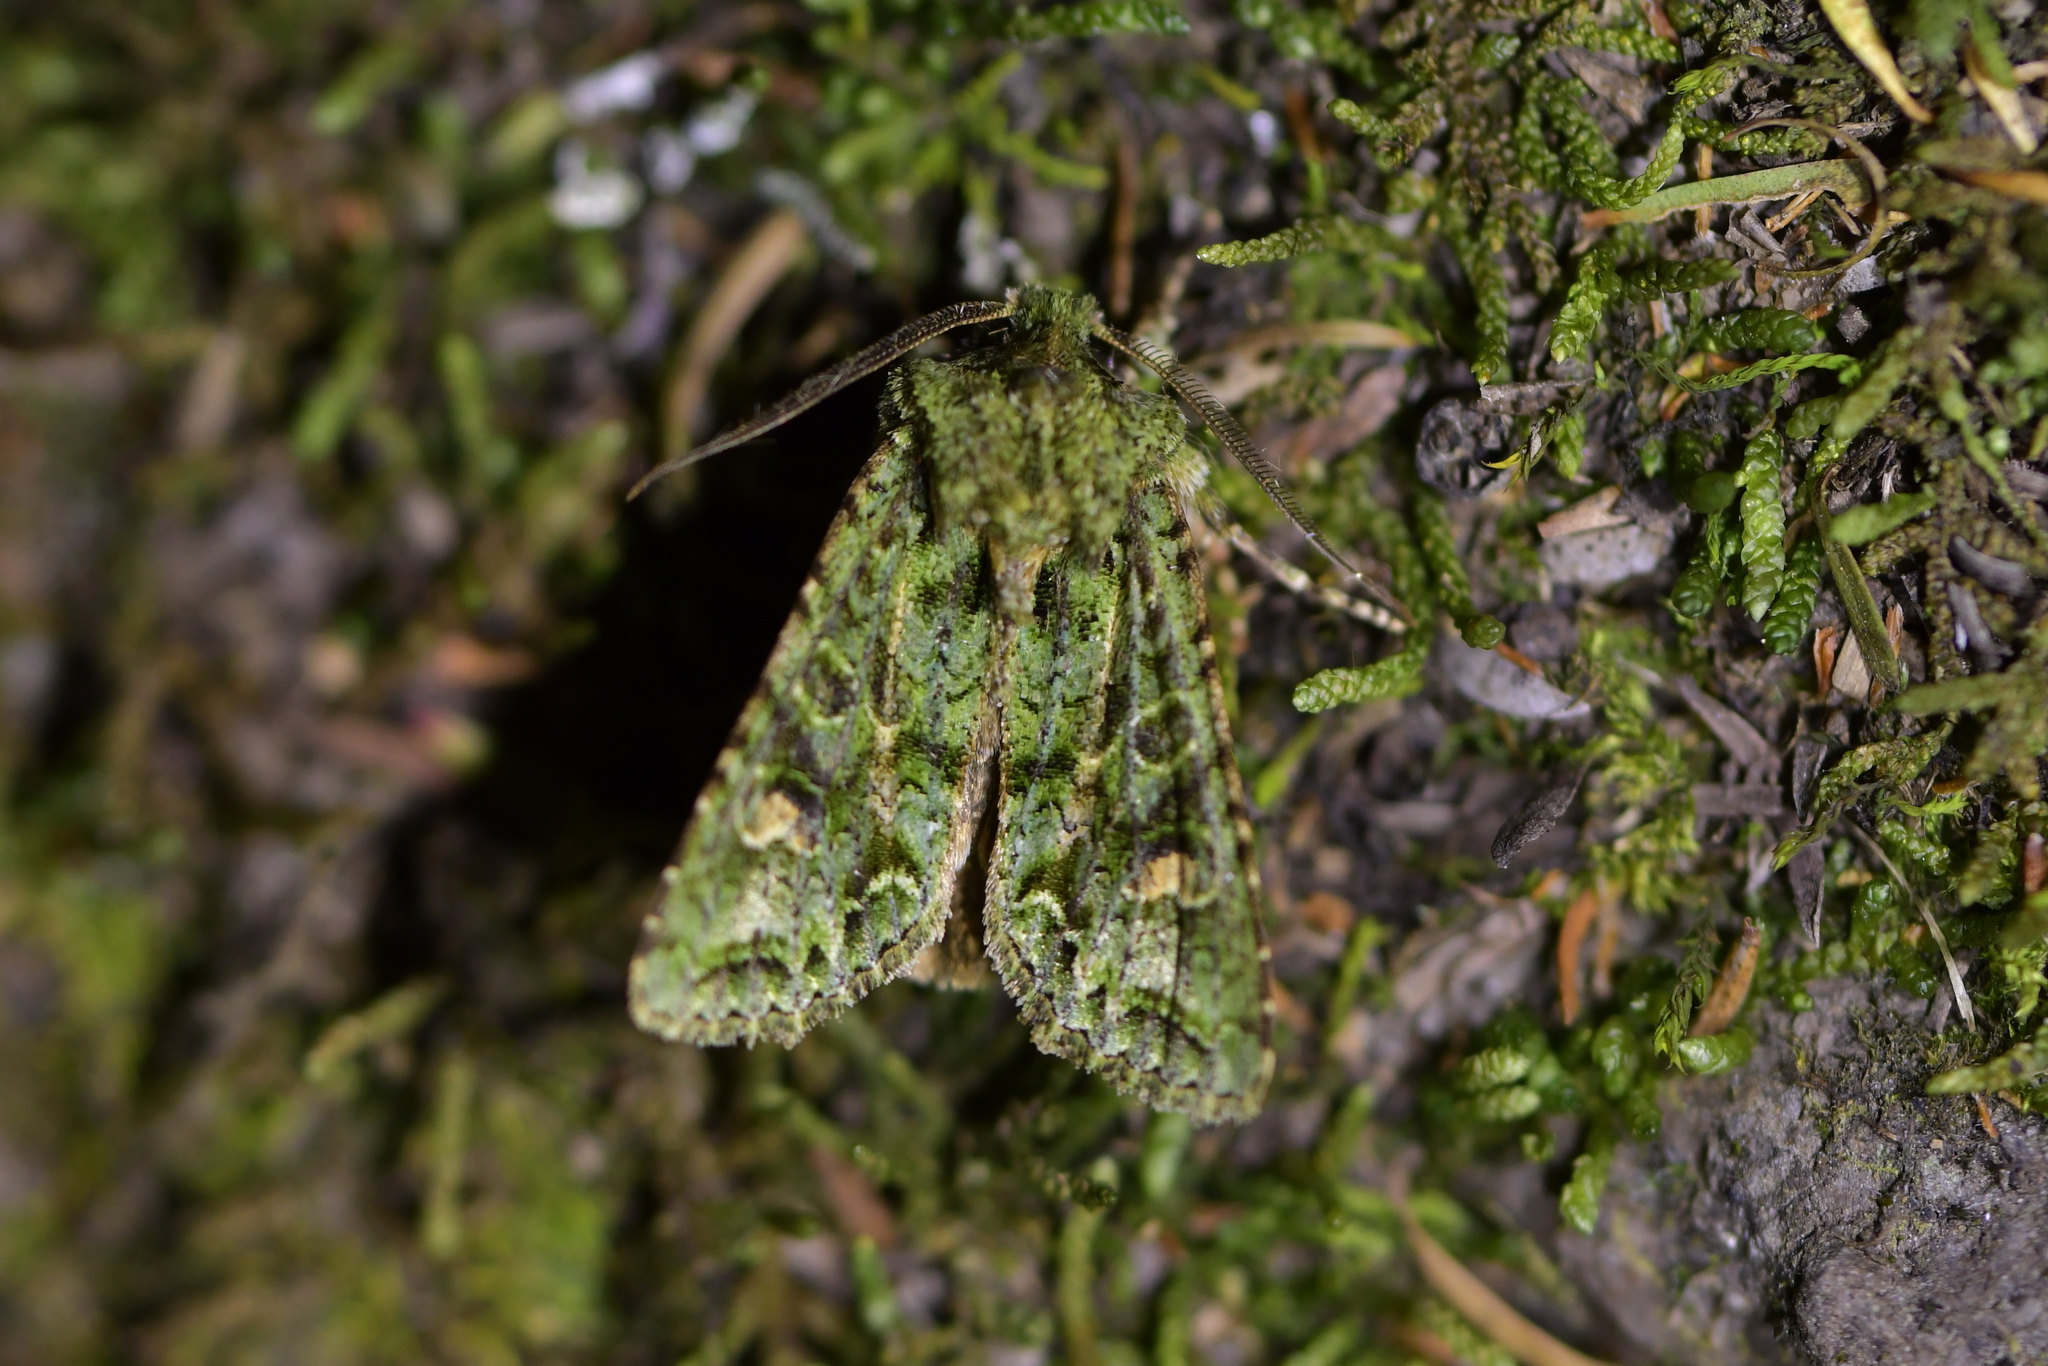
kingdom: Animalia
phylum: Arthropoda
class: Insecta
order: Lepidoptera
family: Noctuidae
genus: Ichneutica
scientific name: Ichneutica
